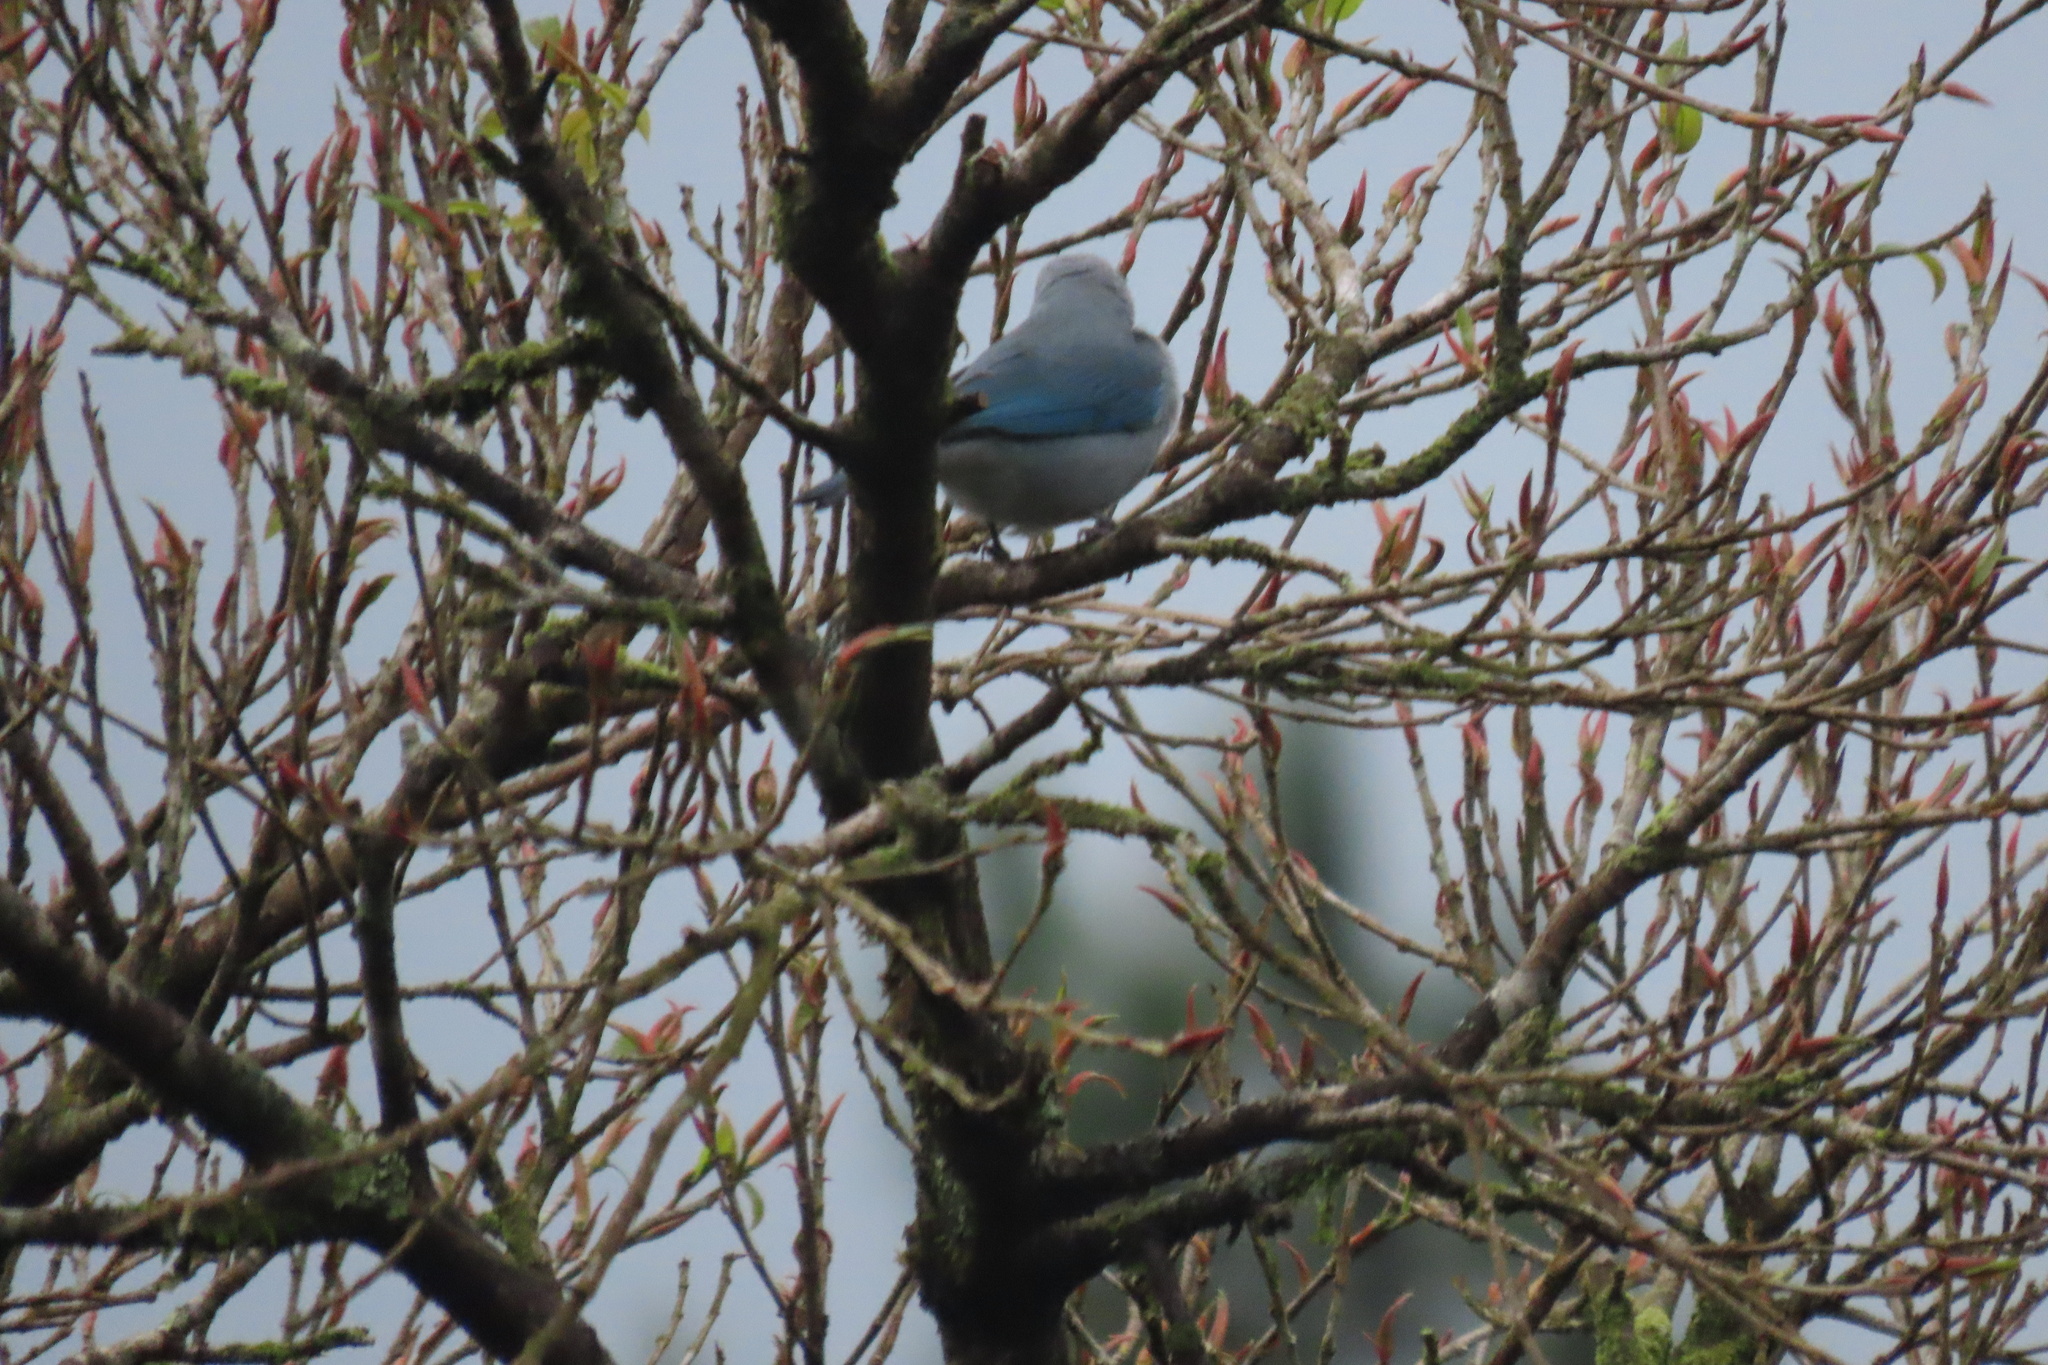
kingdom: Animalia
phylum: Chordata
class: Aves
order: Passeriformes
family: Thraupidae
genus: Thraupis
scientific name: Thraupis episcopus
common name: Blue-grey tanager
